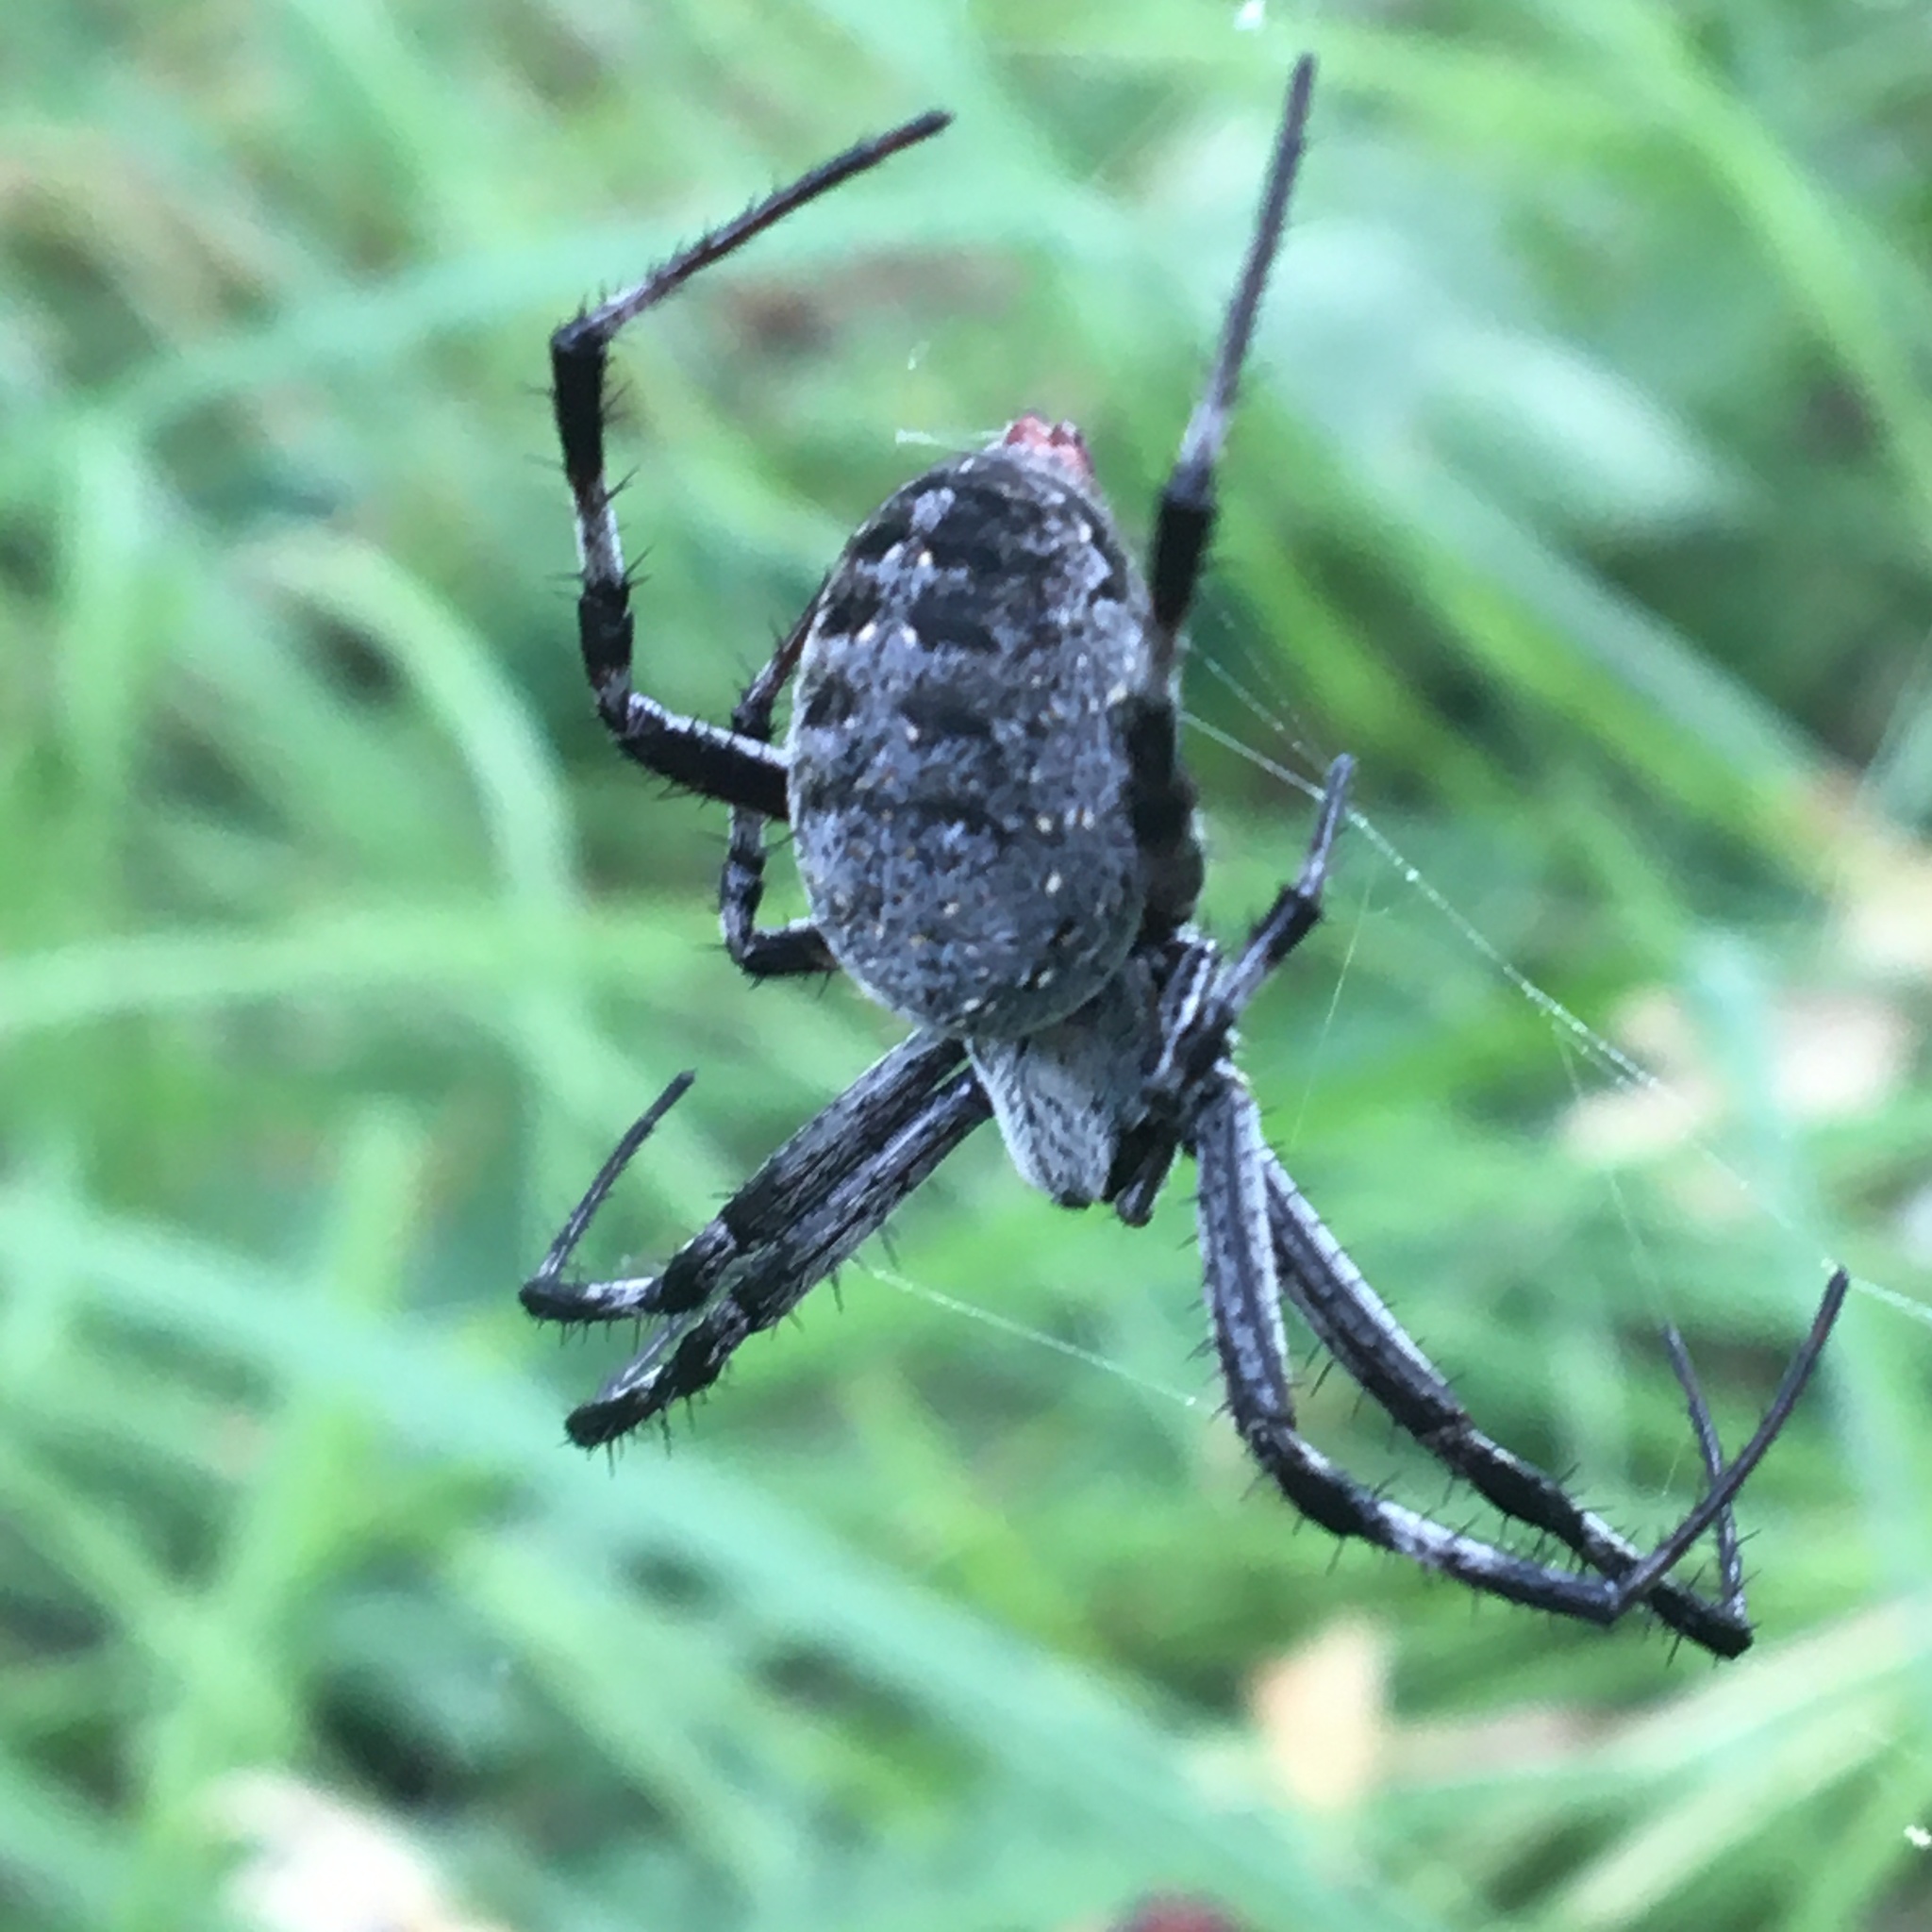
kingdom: Animalia
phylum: Arthropoda
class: Arachnida
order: Araneae
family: Araneidae
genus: Neoscona
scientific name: Neoscona oaxacensis
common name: Orb weavers
